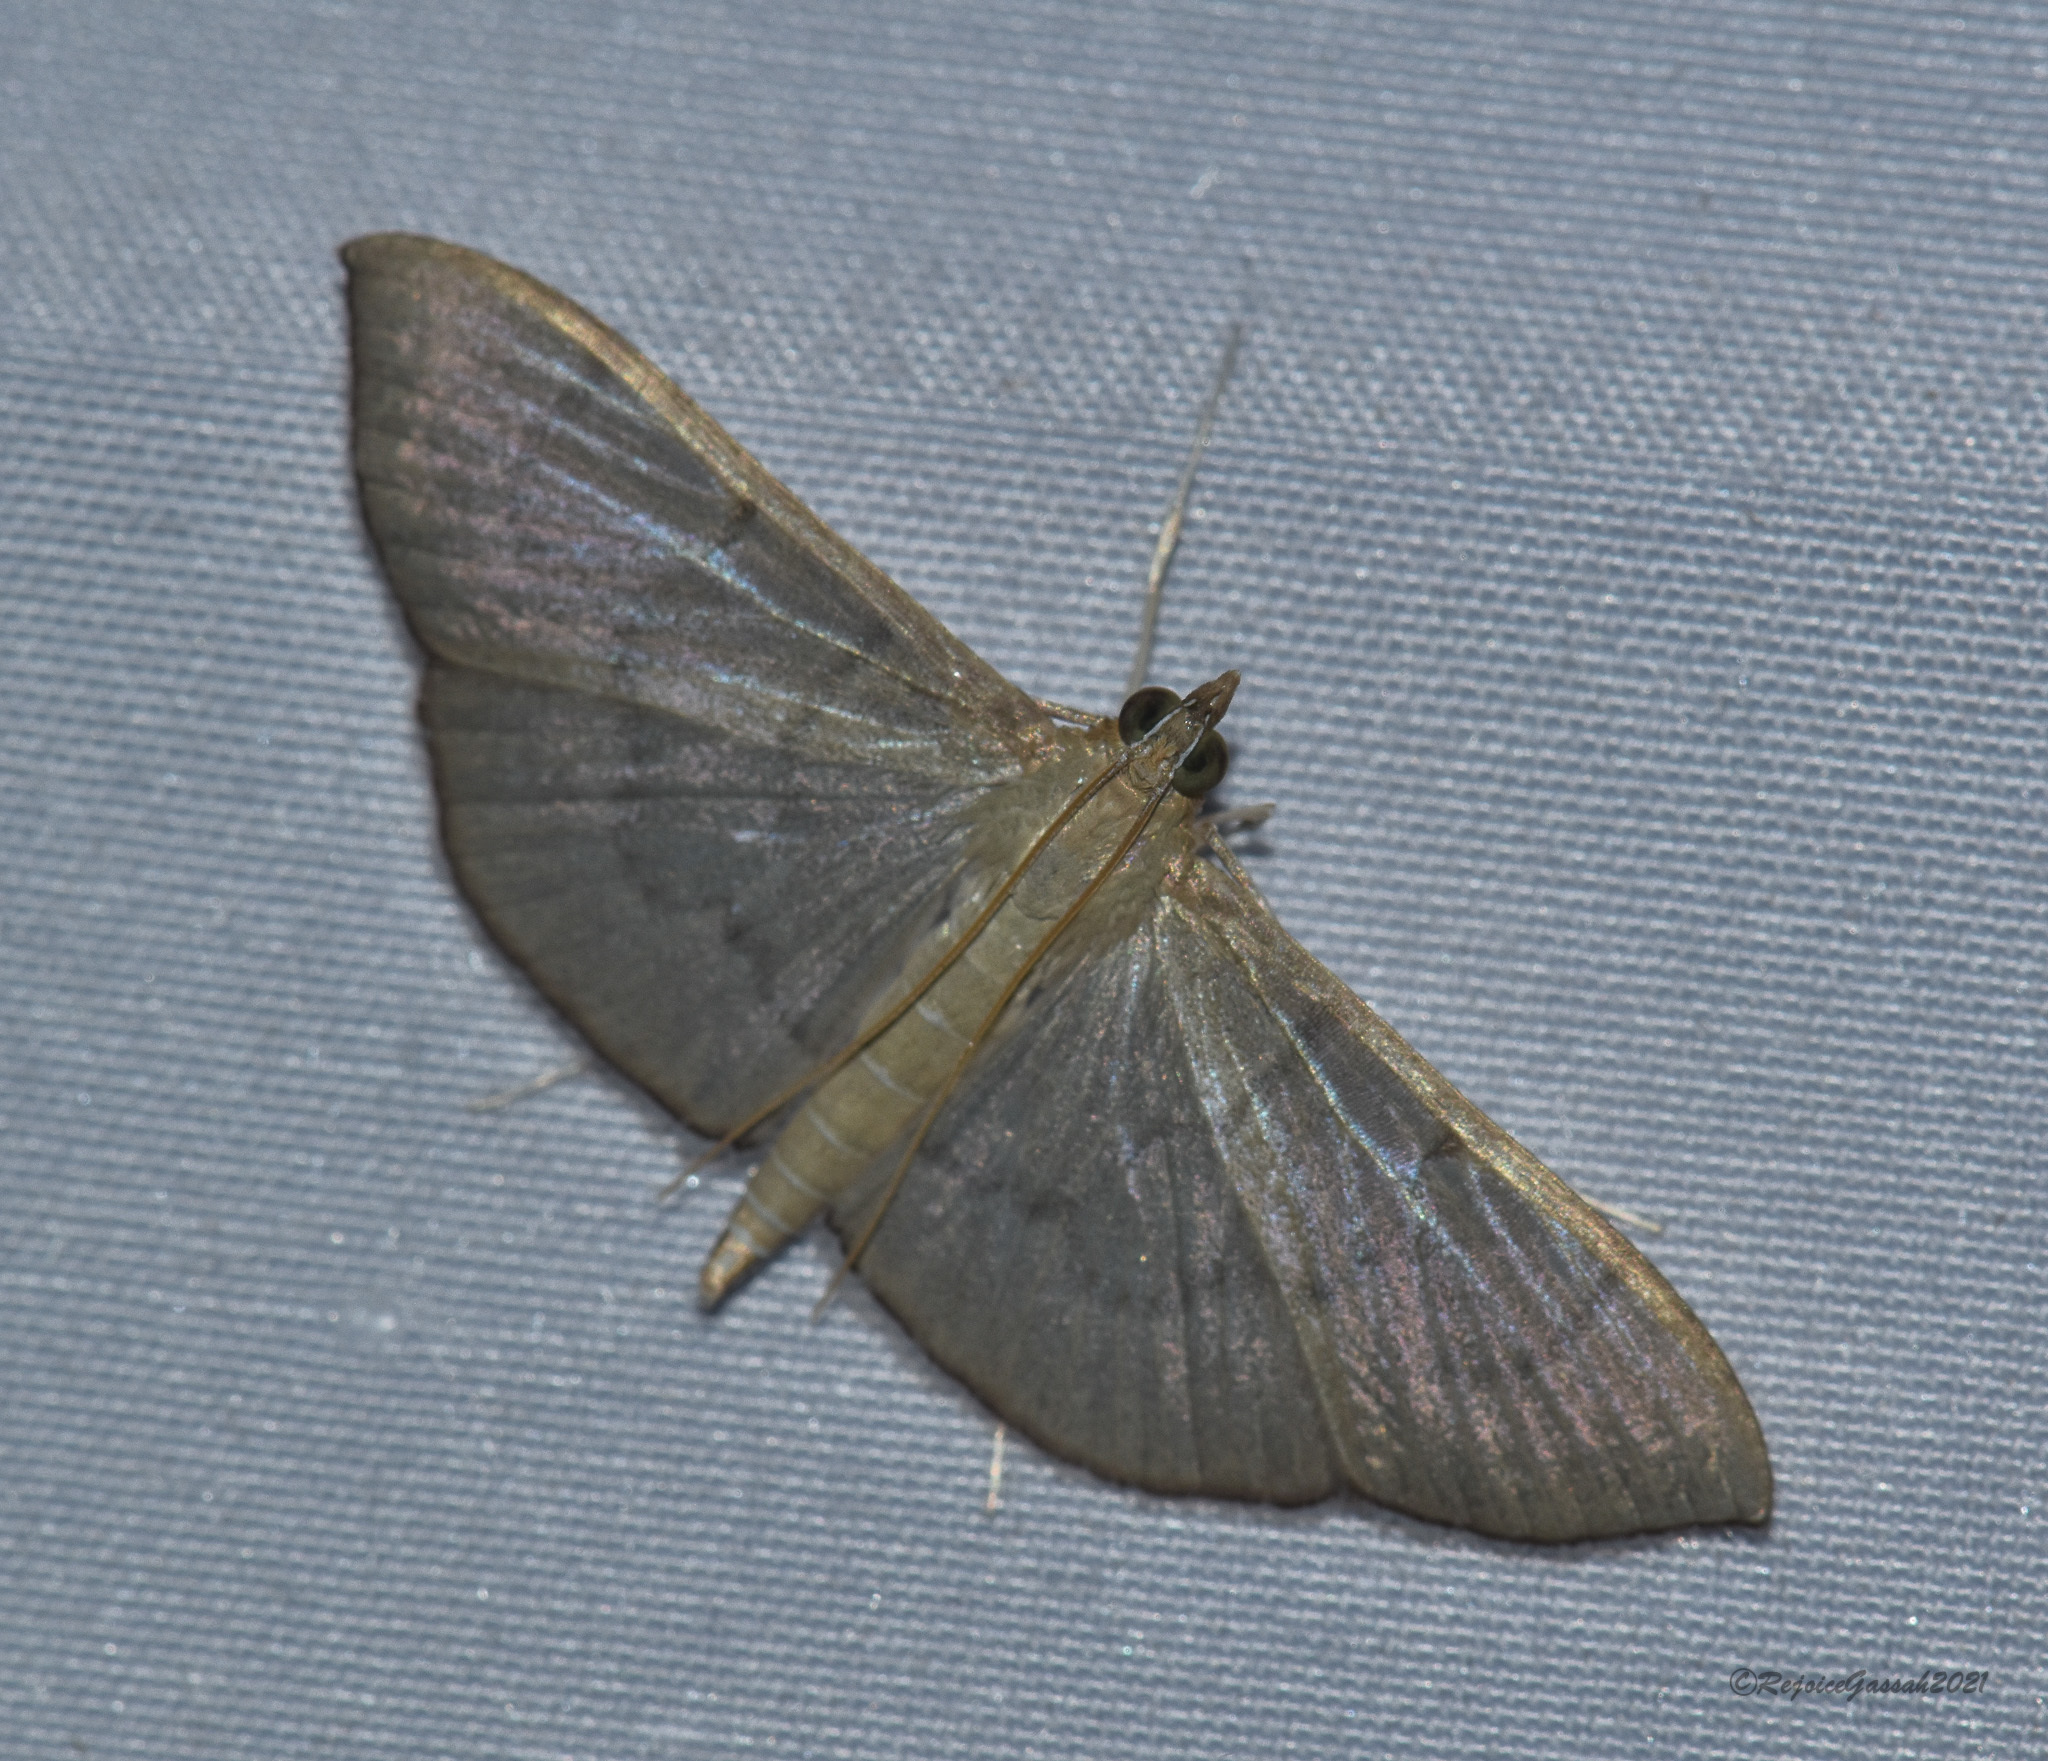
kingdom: Animalia
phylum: Arthropoda
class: Insecta
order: Lepidoptera
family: Crambidae
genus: Lamprophaia
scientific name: Lamprophaia ablactalis
